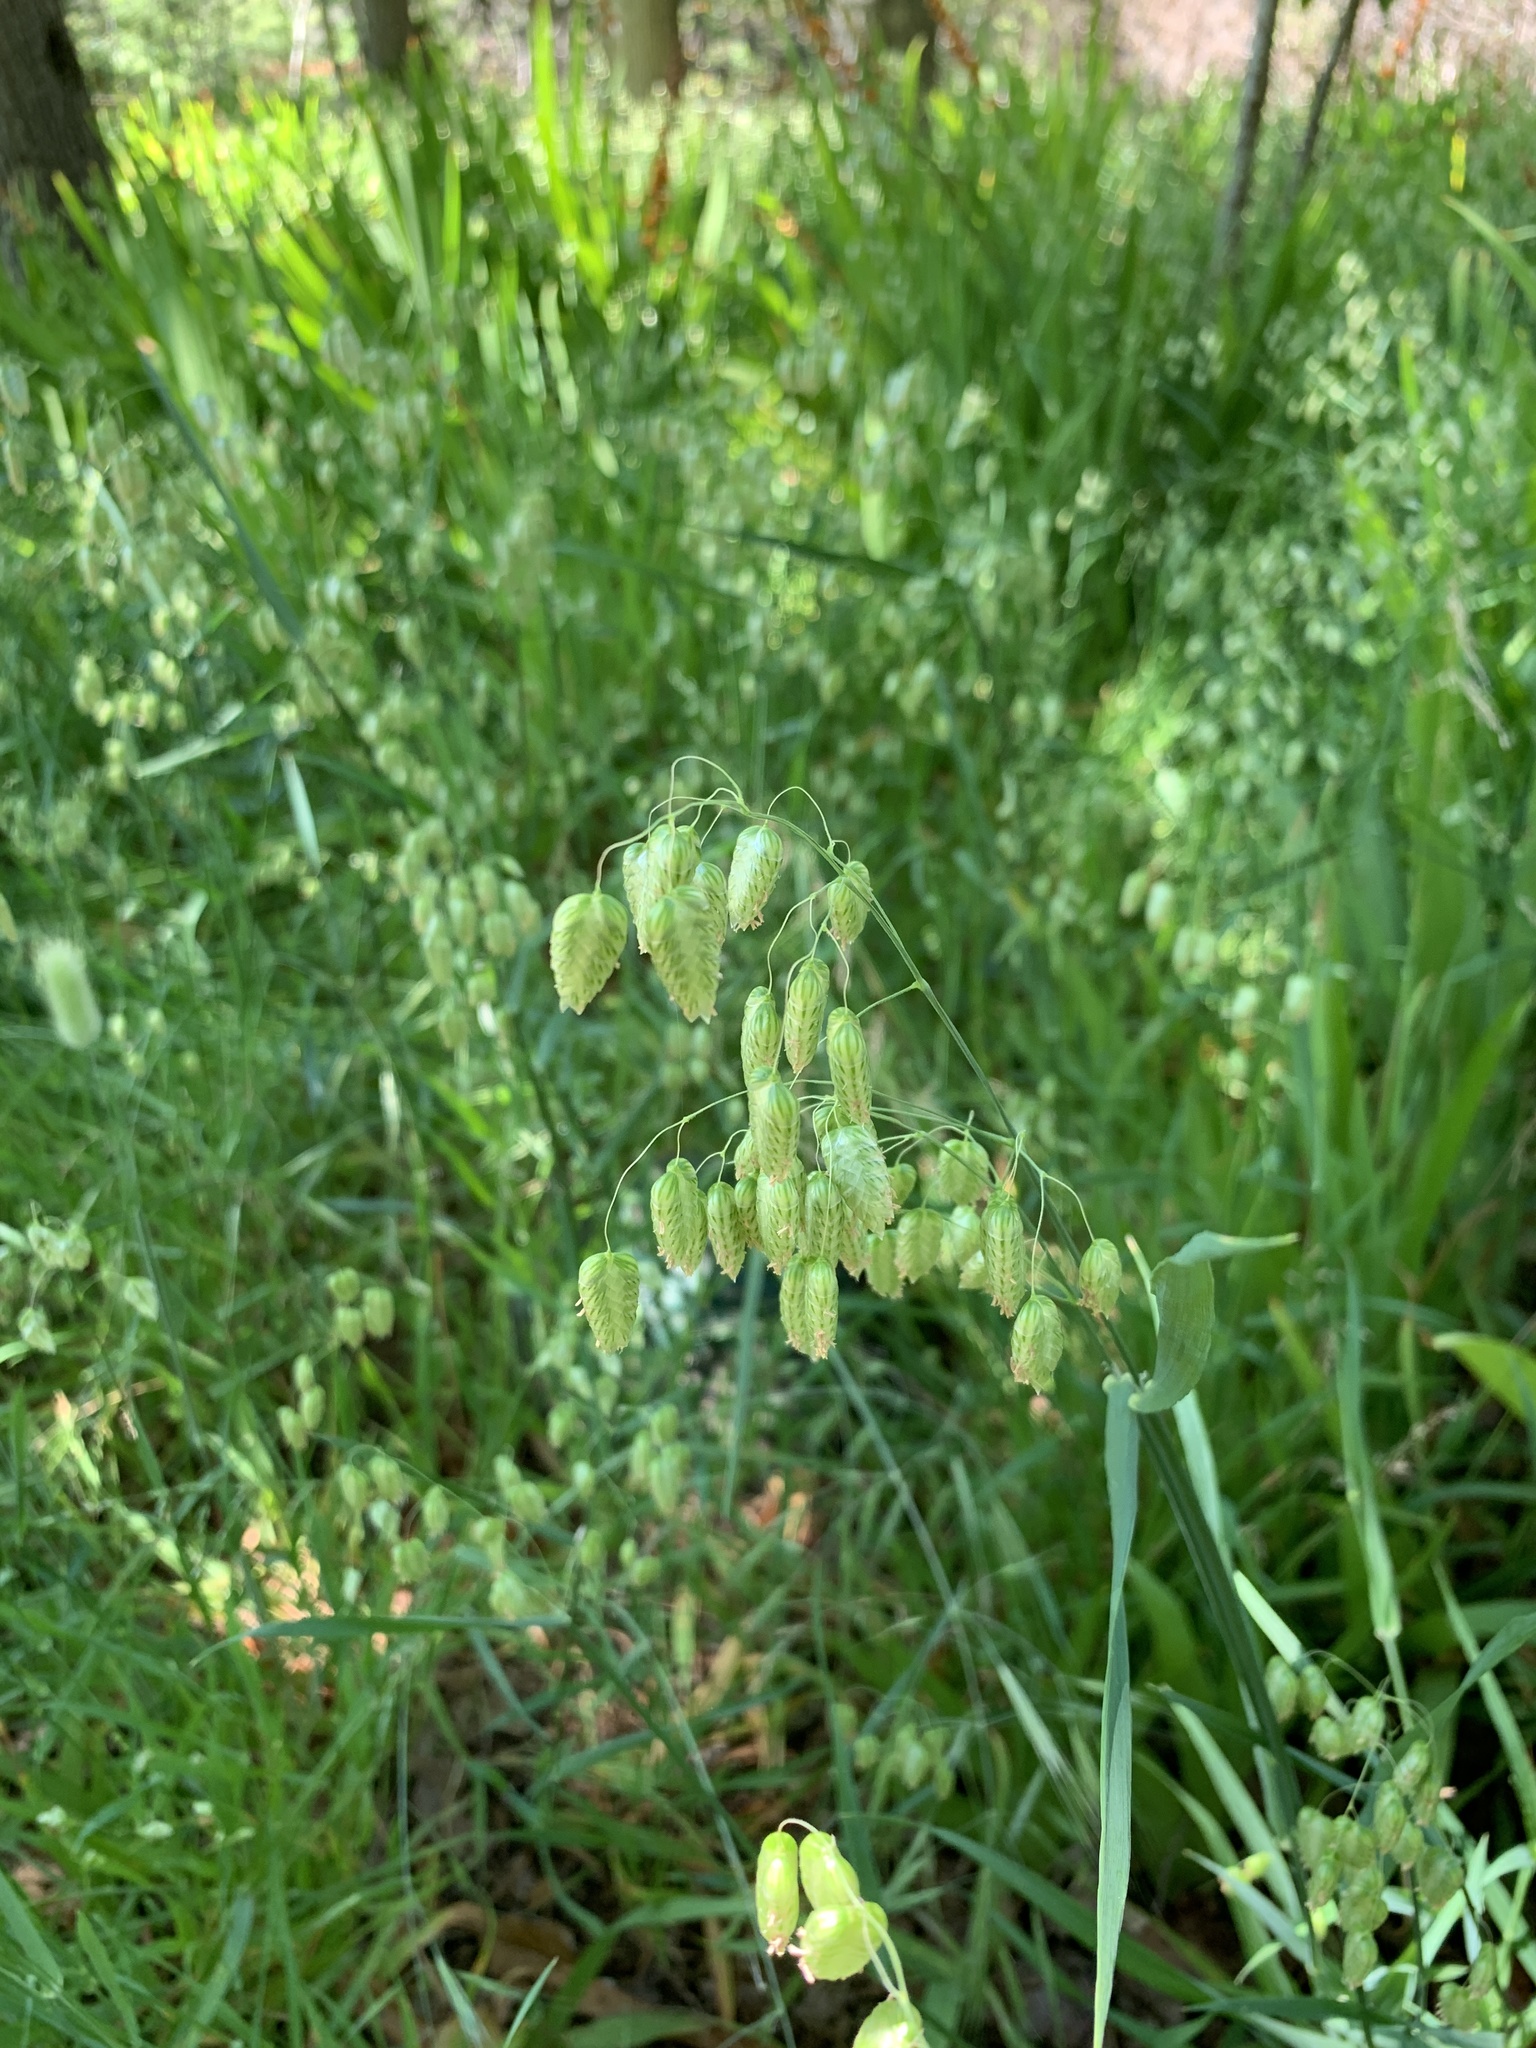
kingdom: Plantae
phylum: Tracheophyta
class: Liliopsida
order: Poales
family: Poaceae
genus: Briza
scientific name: Briza maxima
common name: Big quakinggrass
